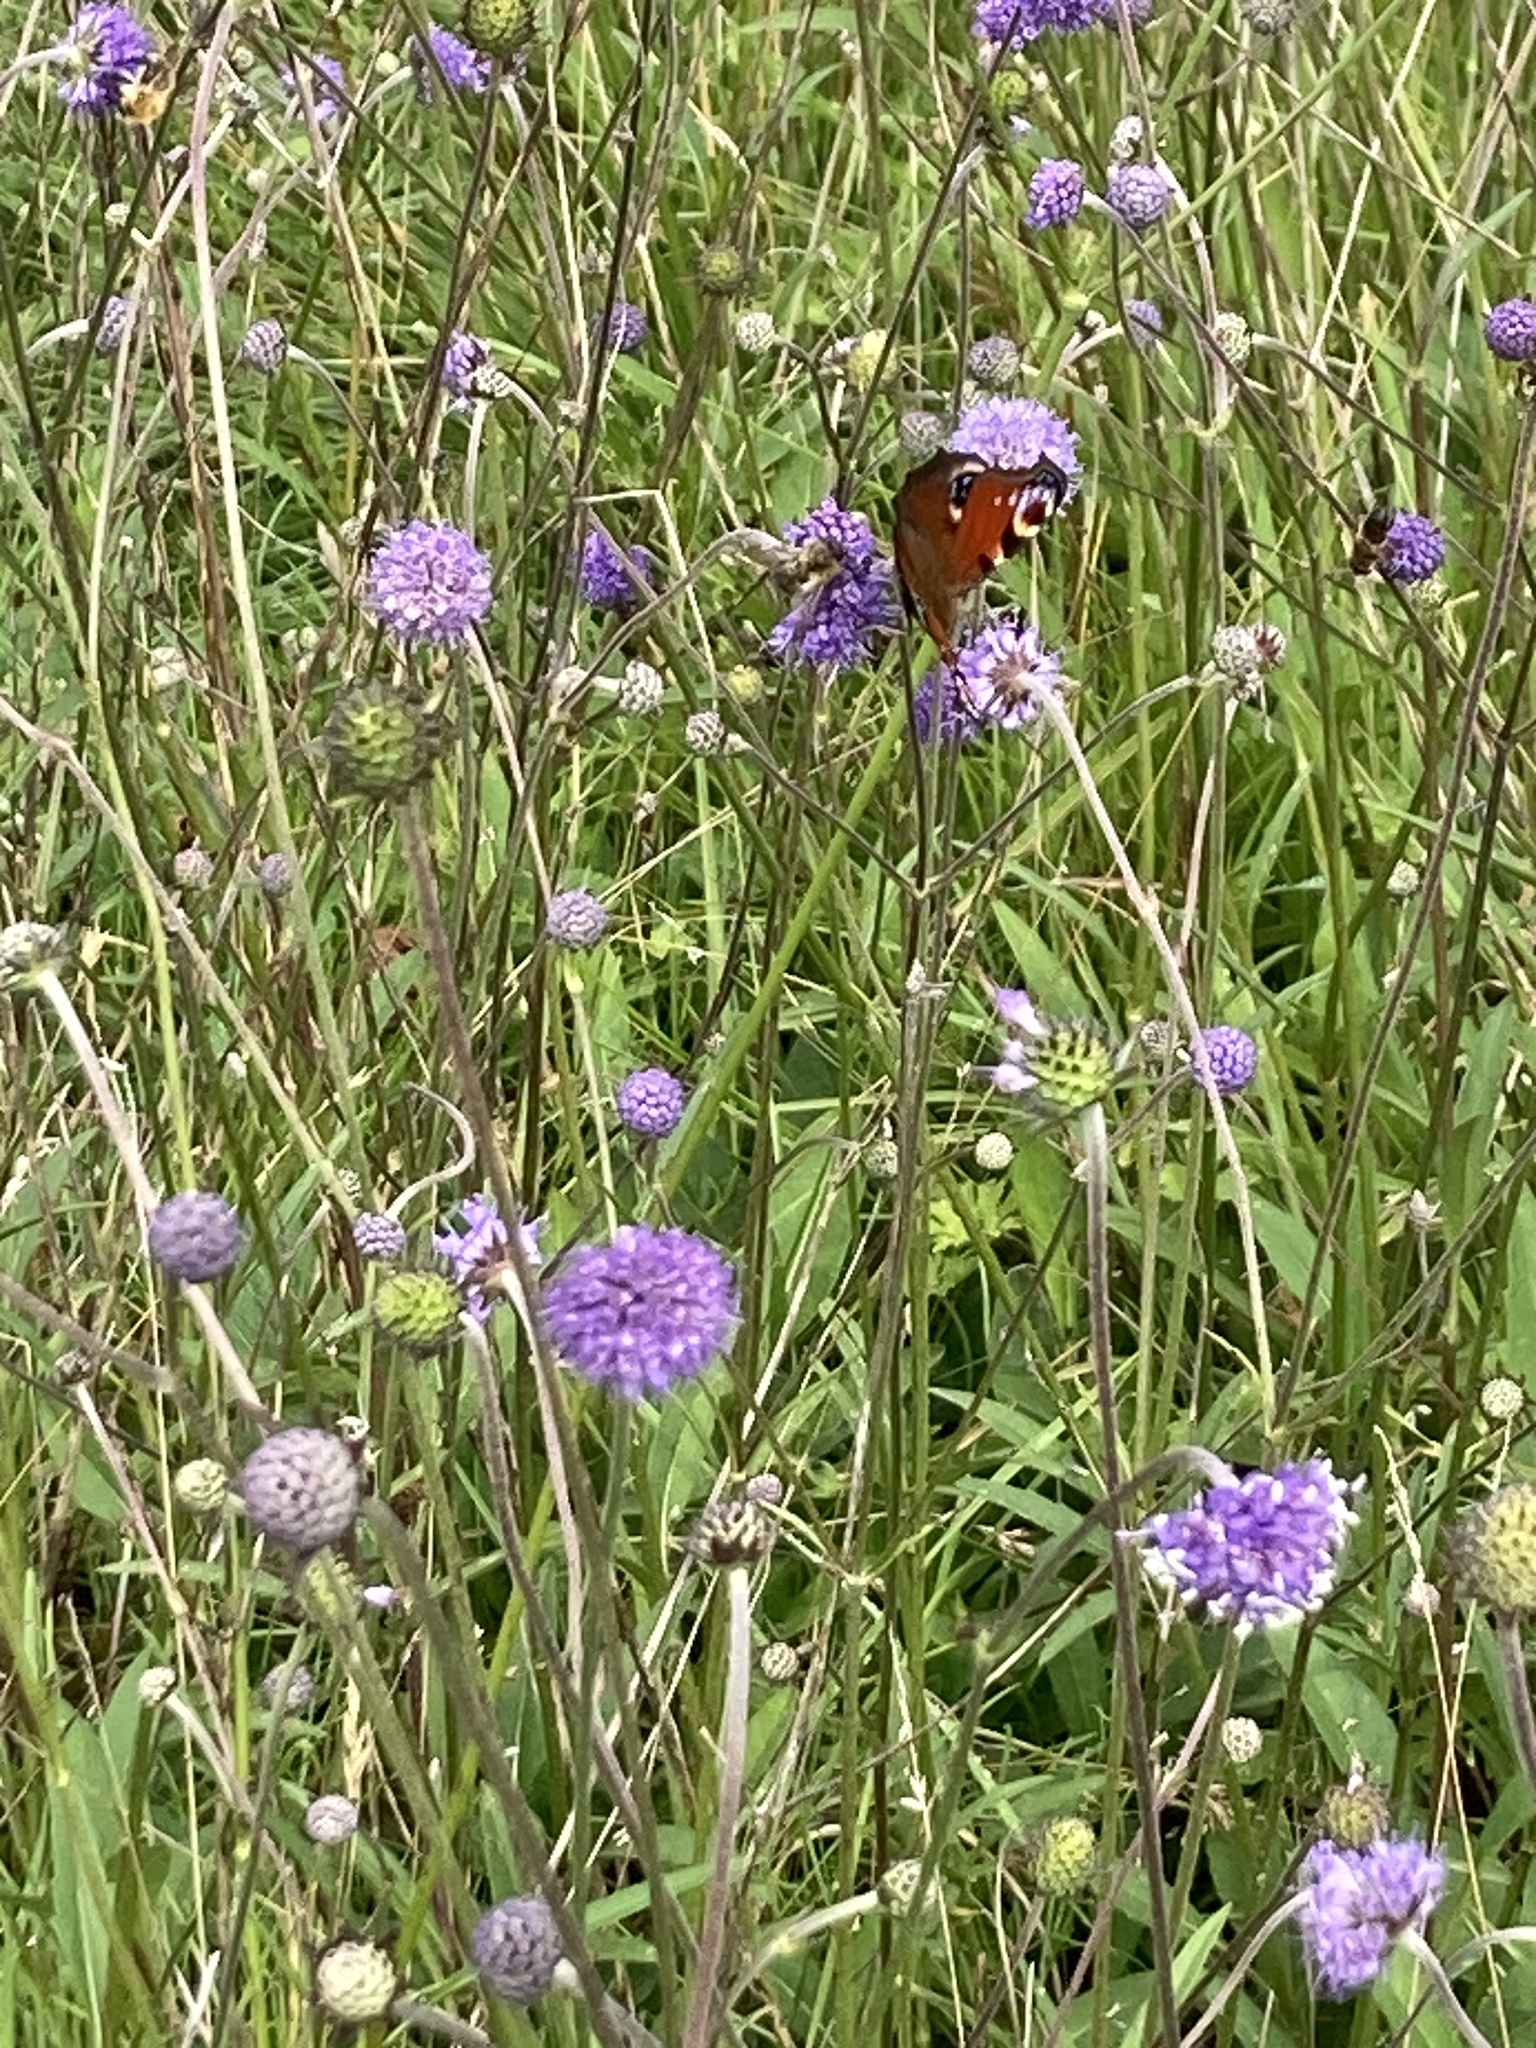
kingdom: Animalia
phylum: Arthropoda
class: Insecta
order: Lepidoptera
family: Nymphalidae
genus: Aglais
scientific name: Aglais io
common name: Peacock
